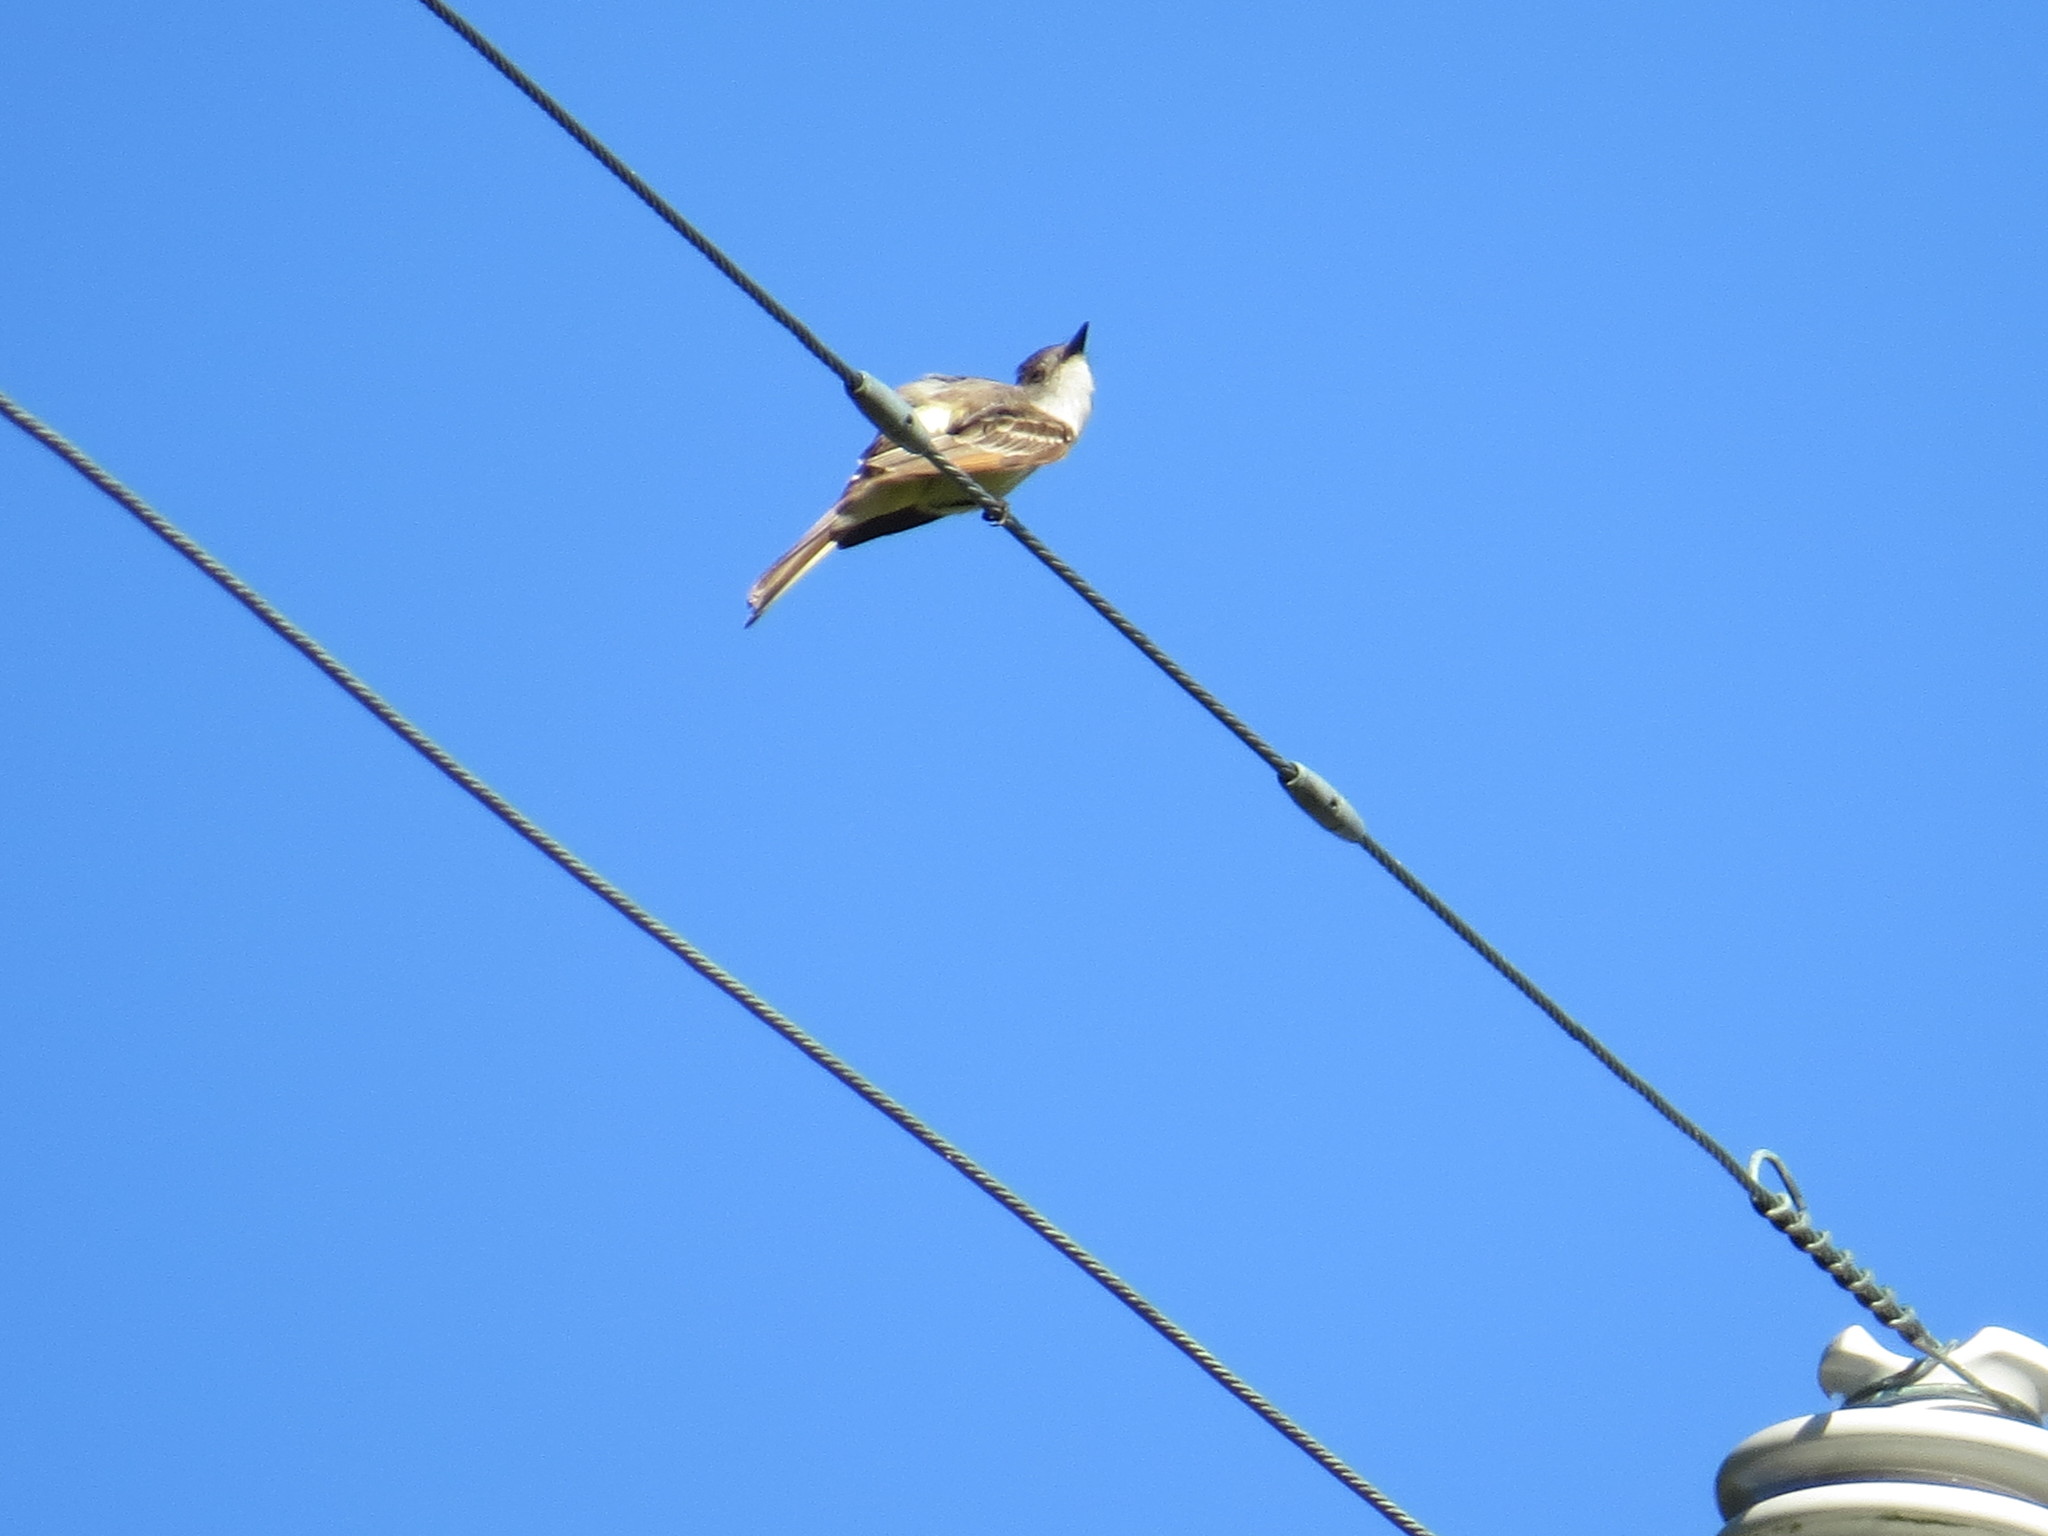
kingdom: Animalia
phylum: Chordata
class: Aves
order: Passeriformes
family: Tyrannidae
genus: Myiarchus
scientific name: Myiarchus cinerascens
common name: Ash-throated flycatcher
